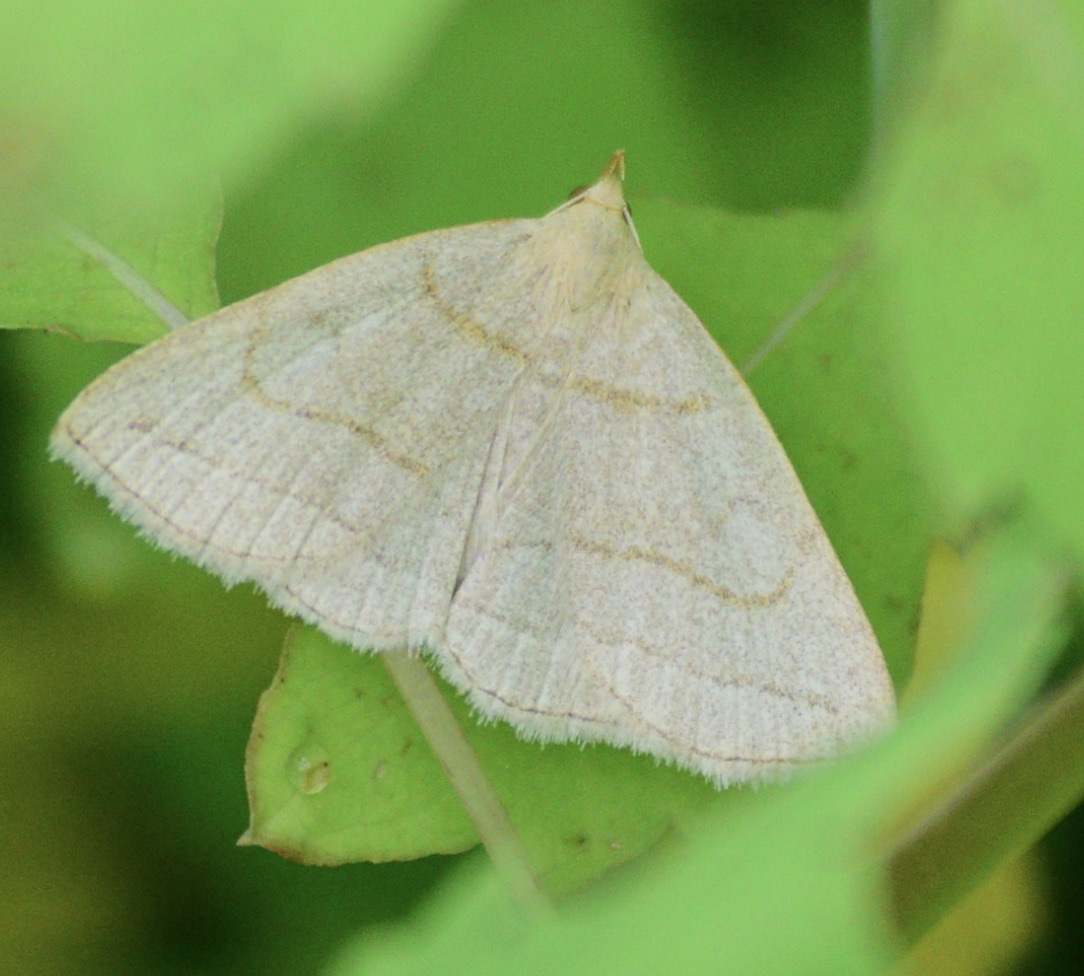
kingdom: Animalia
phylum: Arthropoda
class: Insecta
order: Lepidoptera
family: Erebidae
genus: Zanclognatha
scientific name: Zanclognatha pedipilalis
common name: Grayish fan-foot
